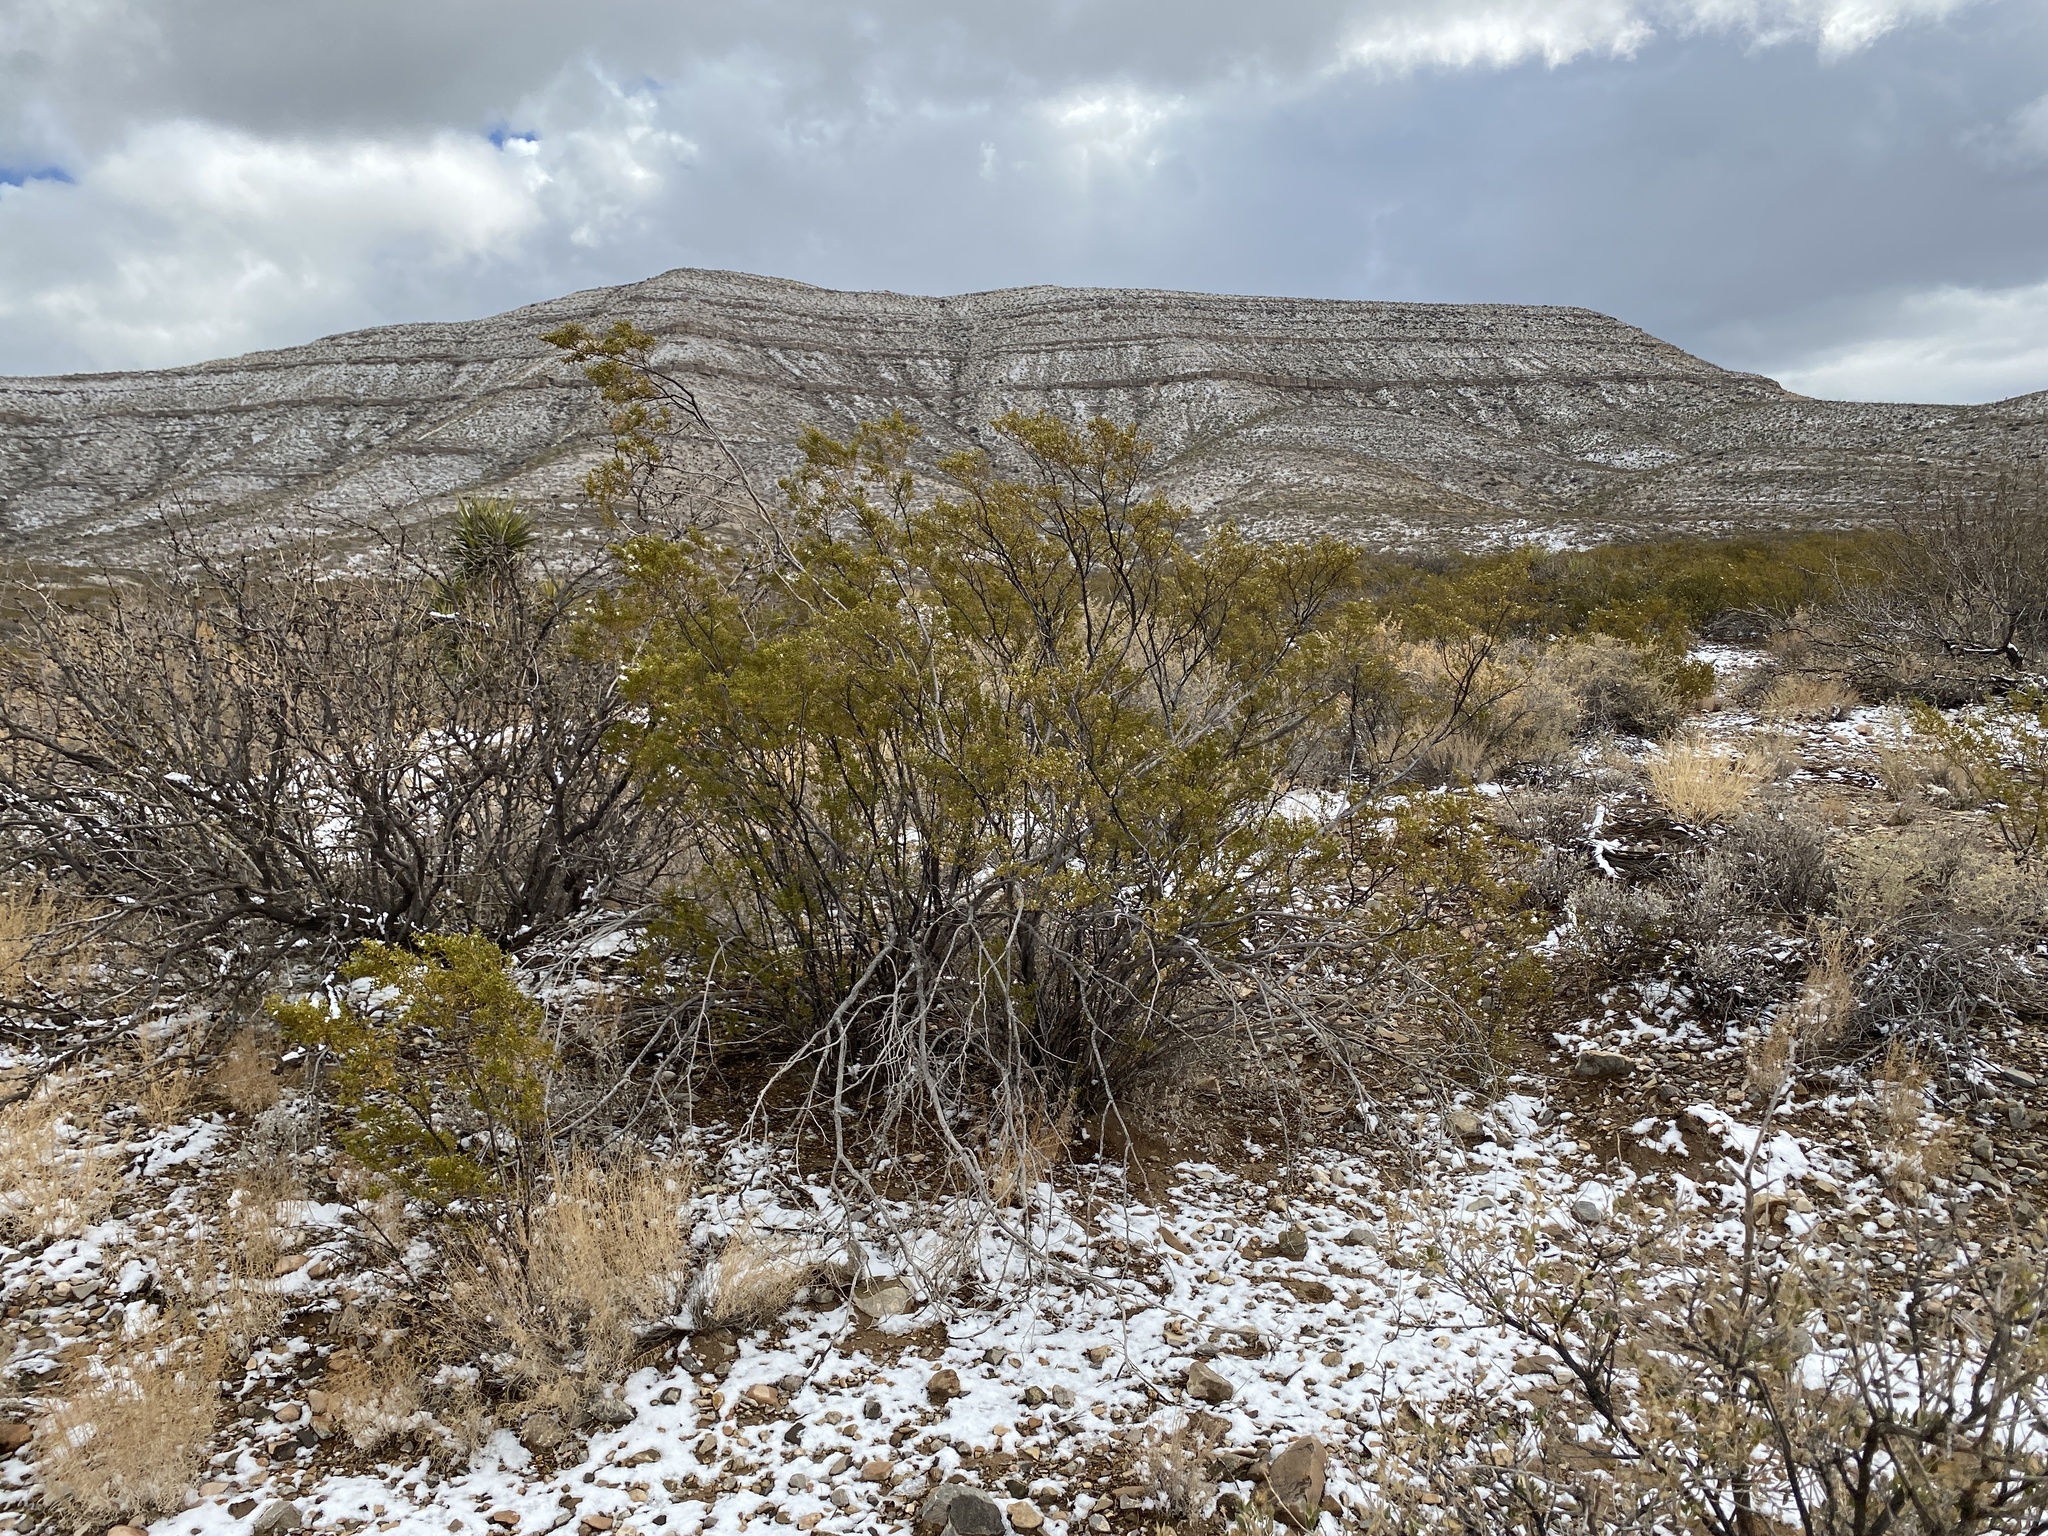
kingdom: Plantae
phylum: Tracheophyta
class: Magnoliopsida
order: Zygophyllales
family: Zygophyllaceae
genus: Larrea
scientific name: Larrea tridentata
